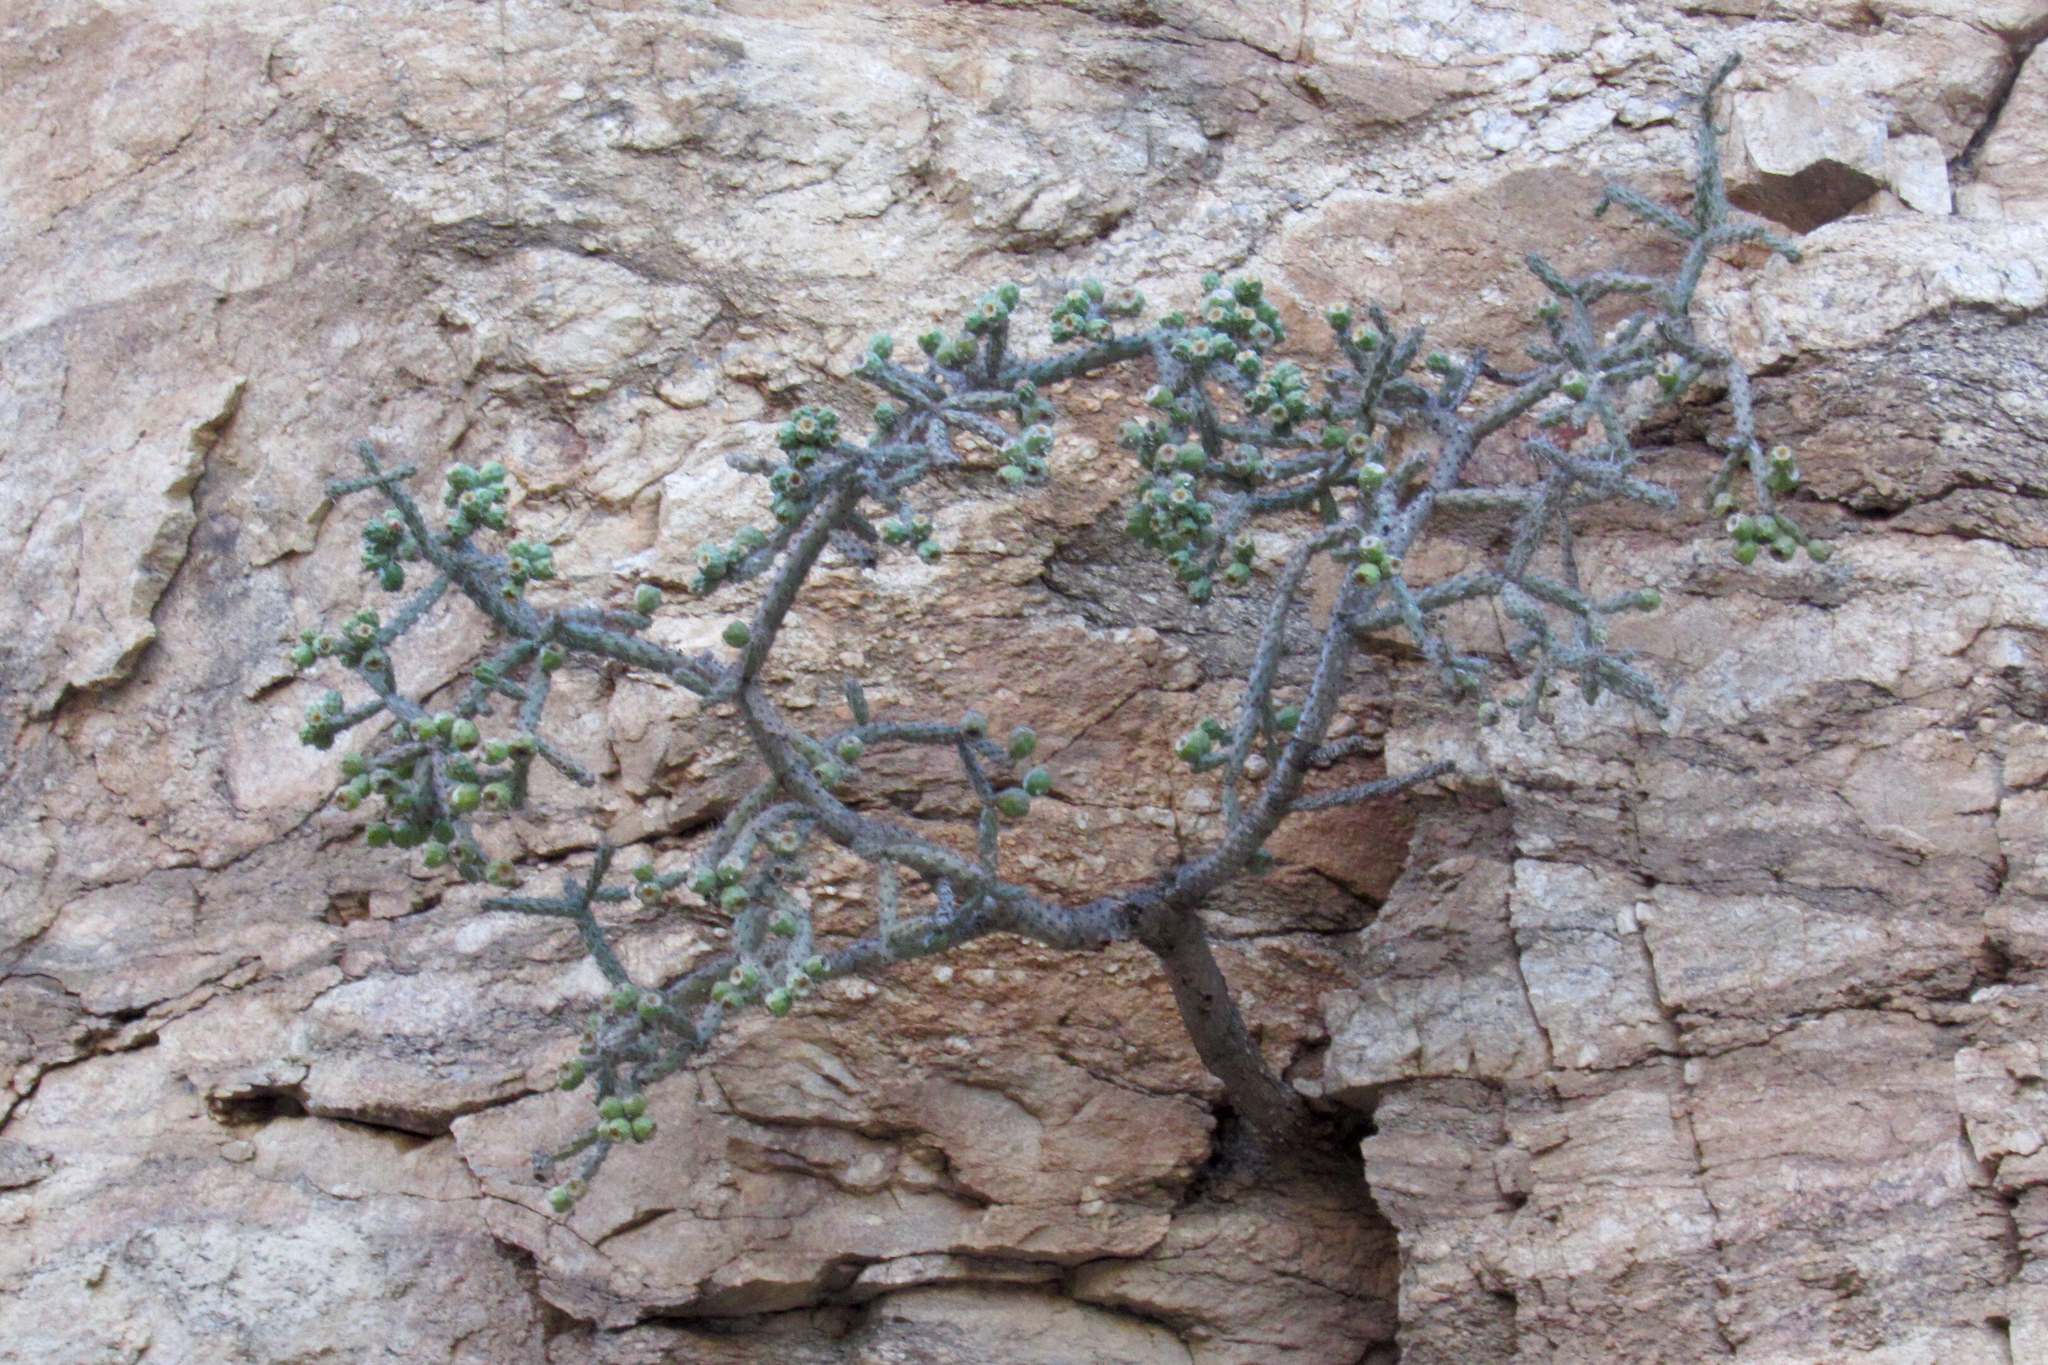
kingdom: Plantae
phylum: Tracheophyta
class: Magnoliopsida
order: Caryophyllales
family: Cactaceae
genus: Cylindropuntia
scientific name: Cylindropuntia thurberi
